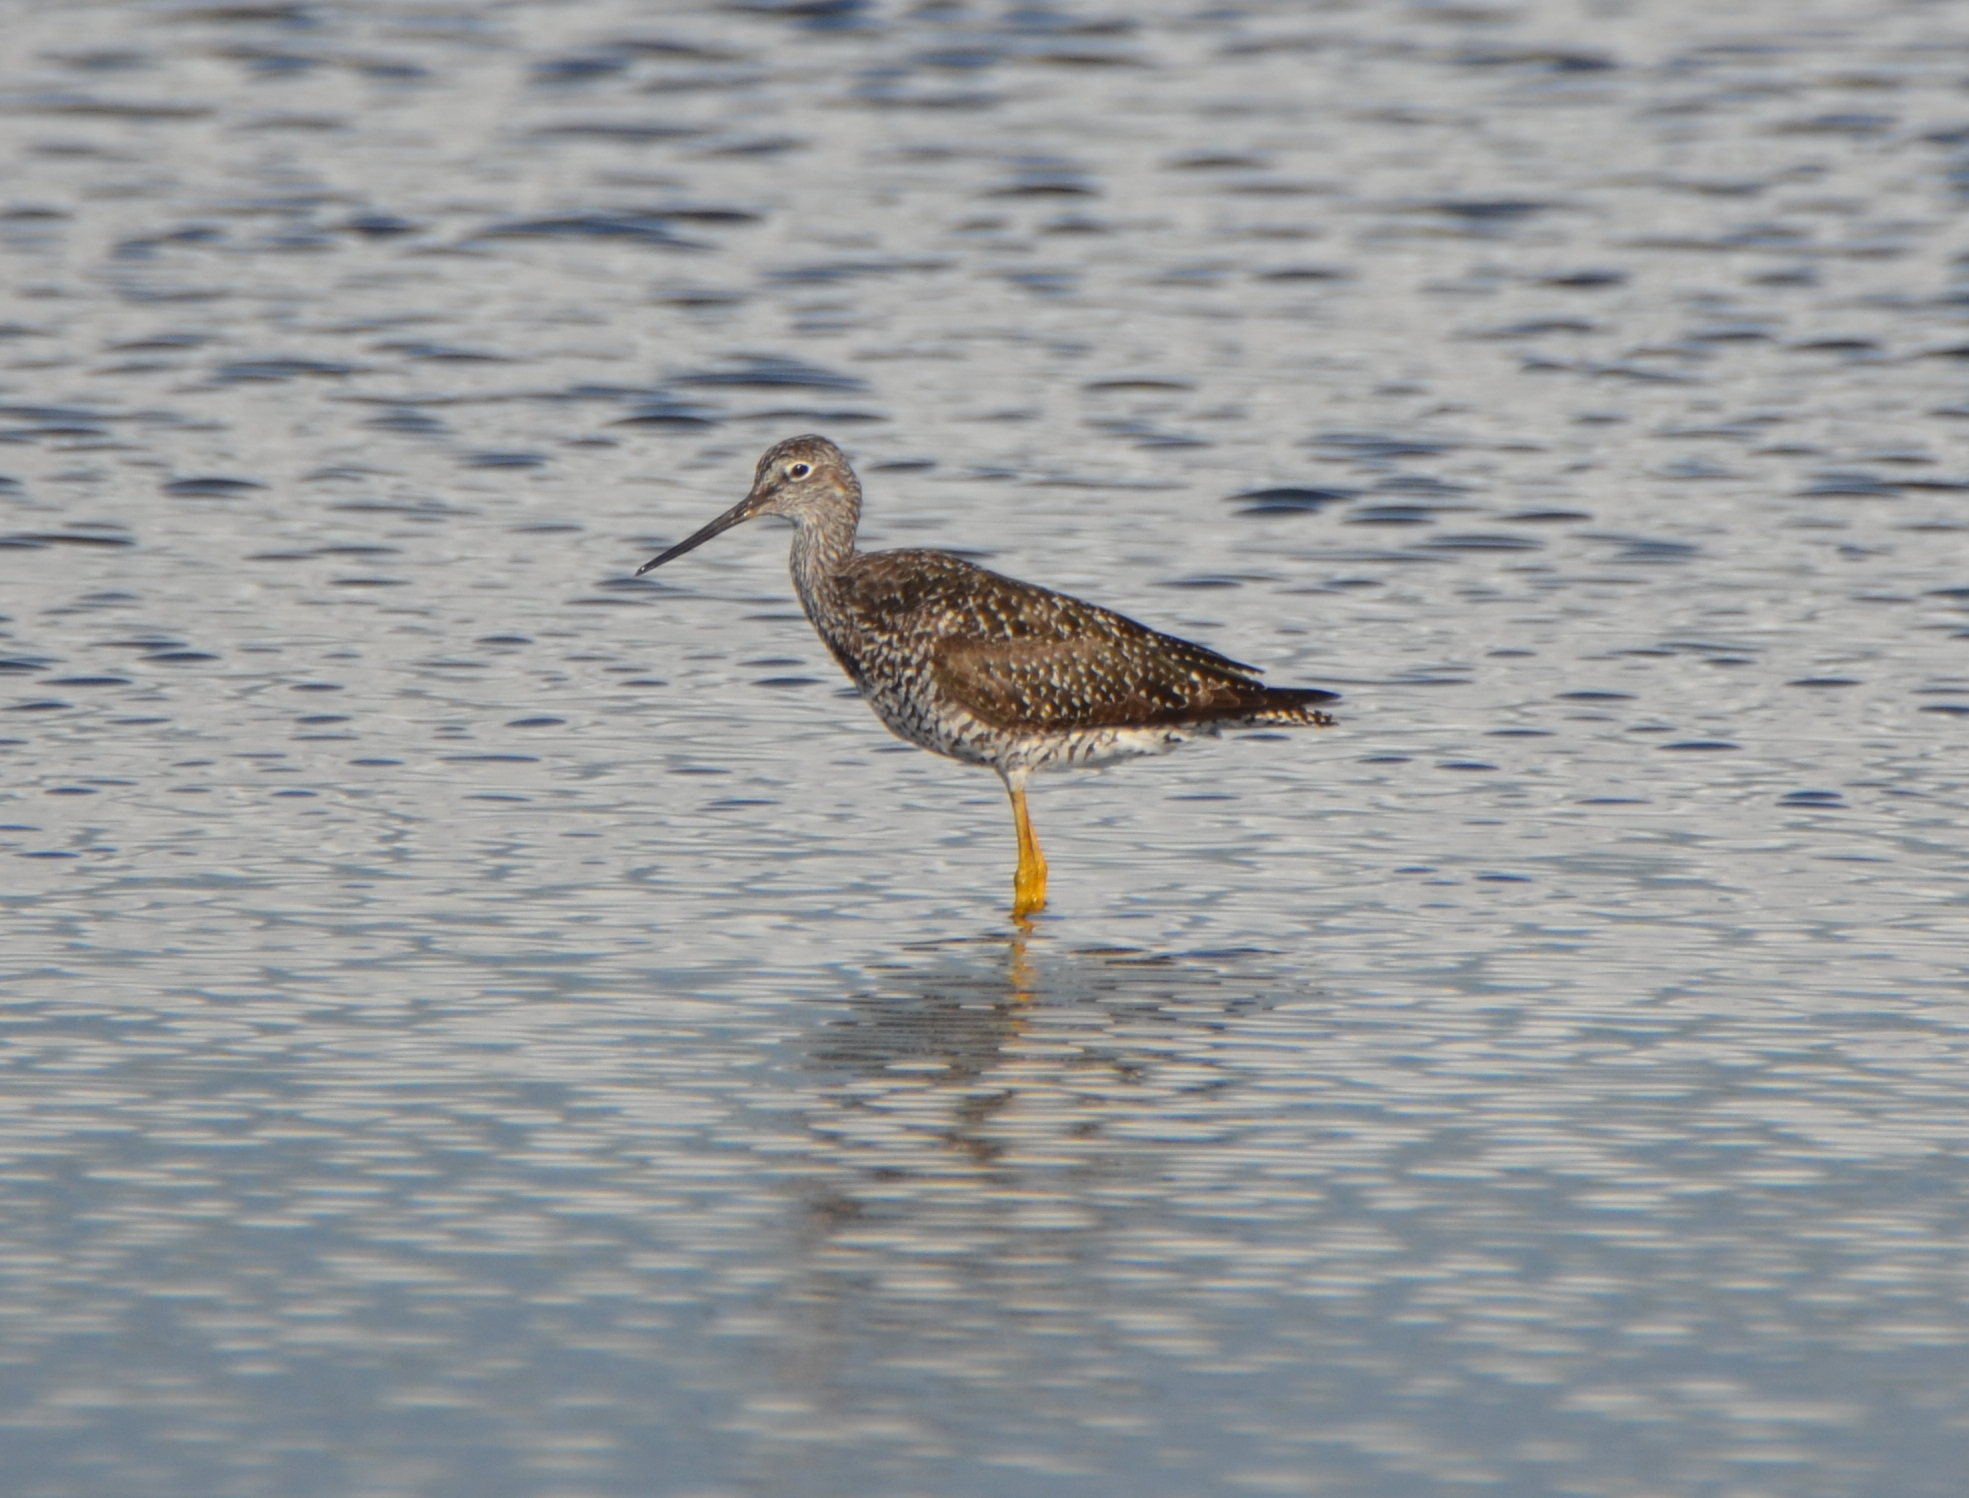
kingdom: Animalia
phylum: Chordata
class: Aves
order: Charadriiformes
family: Scolopacidae
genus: Tringa
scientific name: Tringa melanoleuca
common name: Greater yellowlegs
